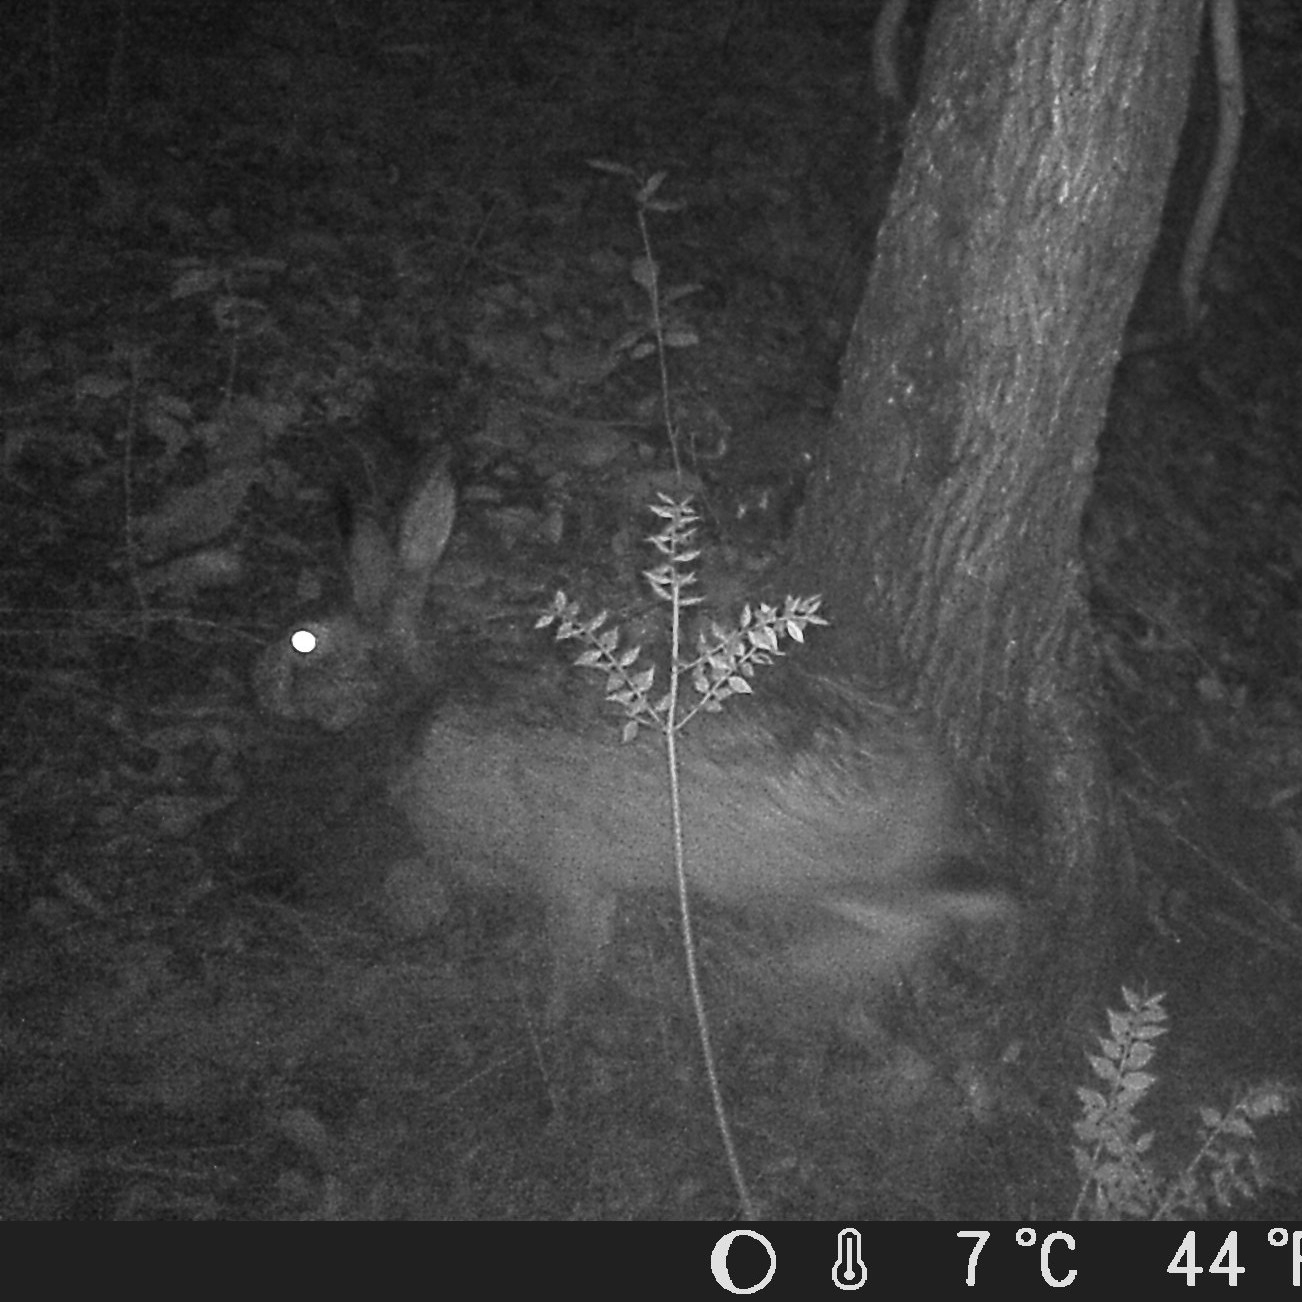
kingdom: Animalia
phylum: Chordata
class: Mammalia
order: Lagomorpha
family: Leporidae
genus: Lepus
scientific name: Lepus europaeus
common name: European hare
